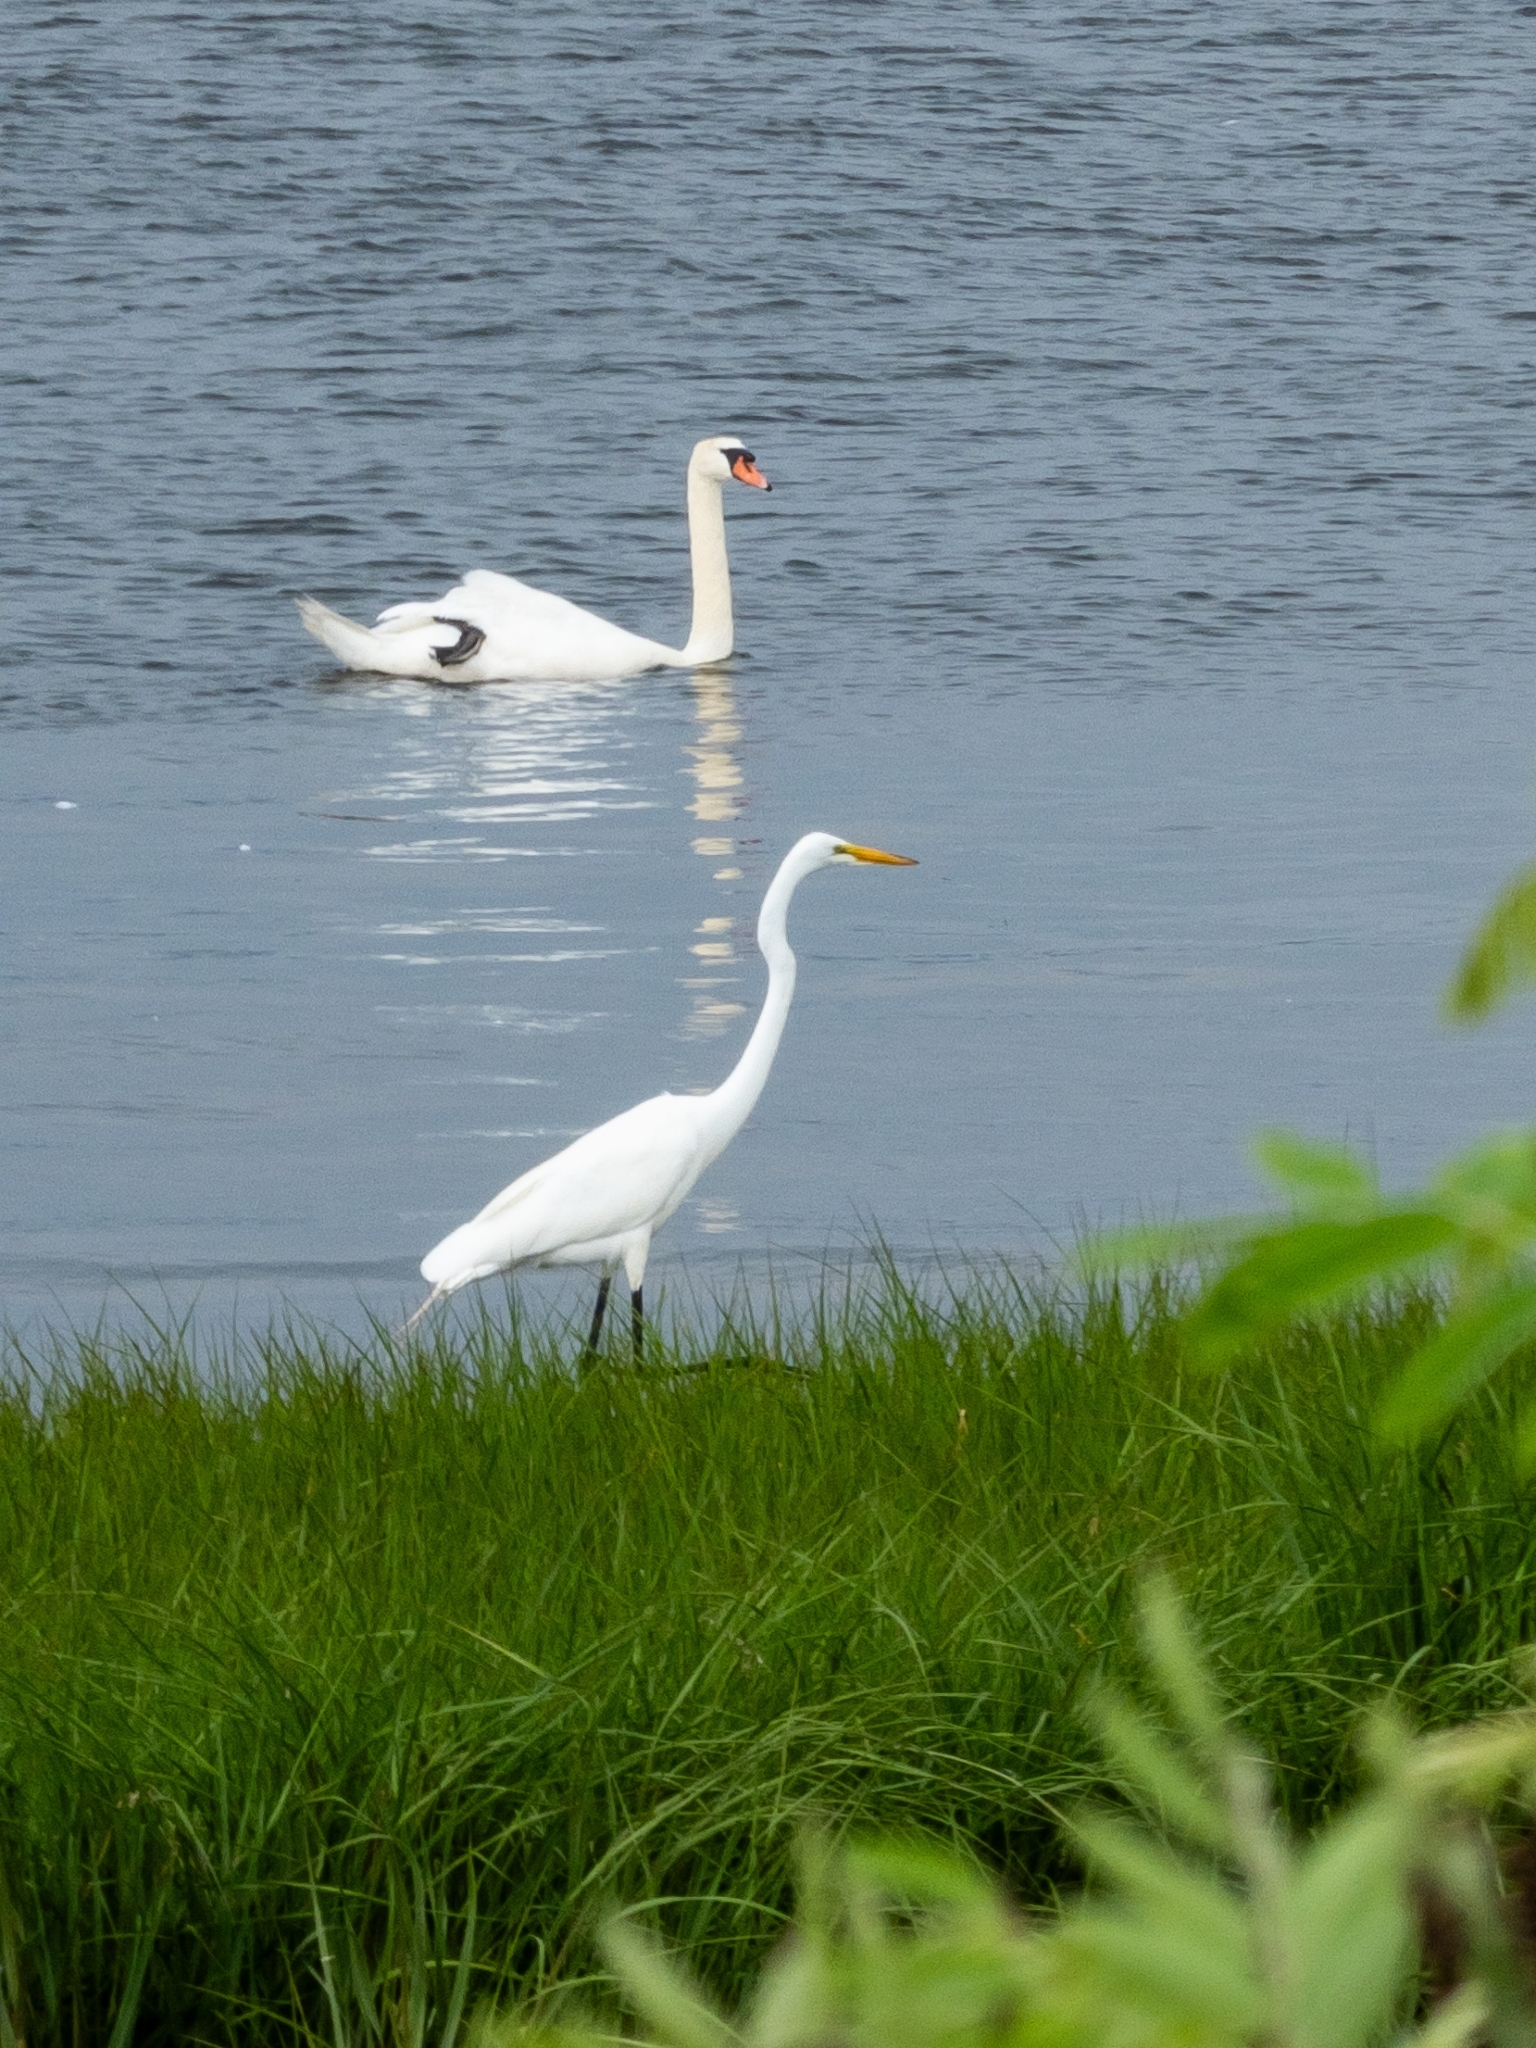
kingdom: Animalia
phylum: Chordata
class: Aves
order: Pelecaniformes
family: Ardeidae
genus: Ardea
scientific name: Ardea alba
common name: Great egret
